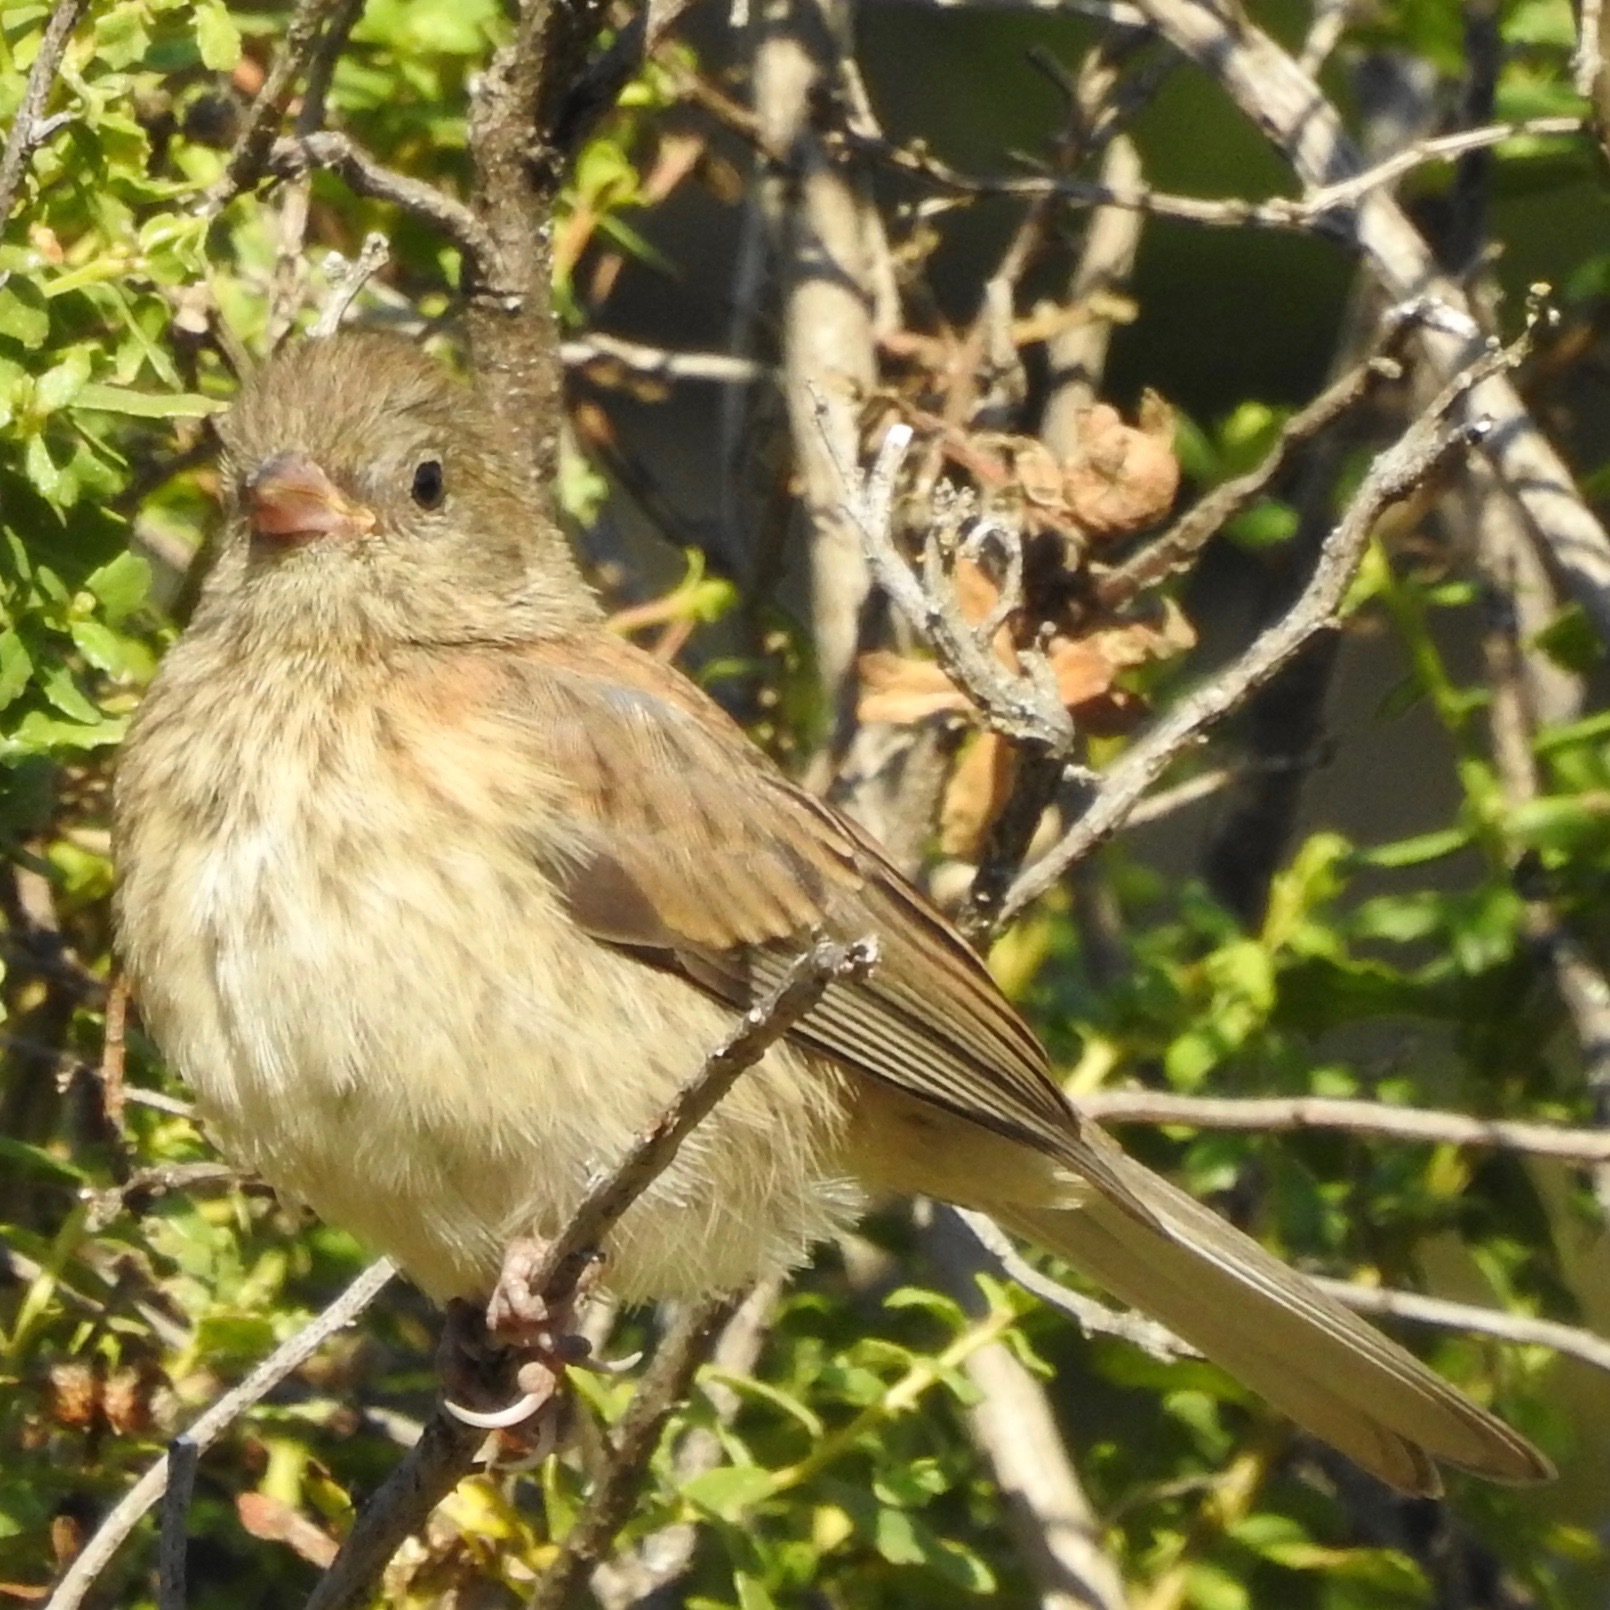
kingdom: Animalia
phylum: Chordata
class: Aves
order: Passeriformes
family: Passerellidae
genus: Junco
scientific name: Junco hyemalis
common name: Dark-eyed junco
